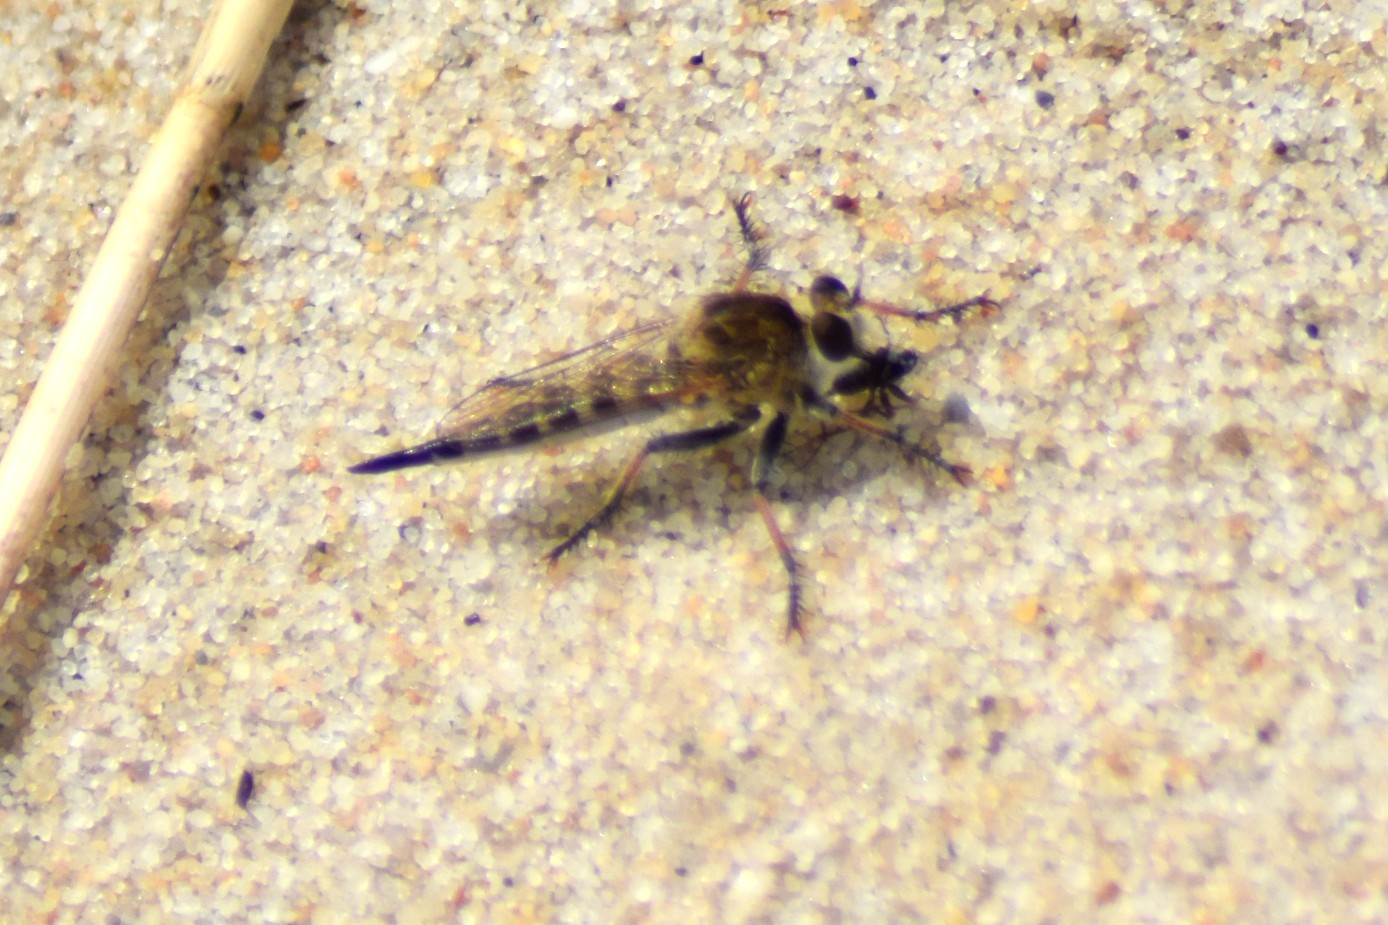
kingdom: Animalia
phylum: Arthropoda
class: Insecta
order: Diptera
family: Asilidae
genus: Efferia
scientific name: Efferia albibarbis
